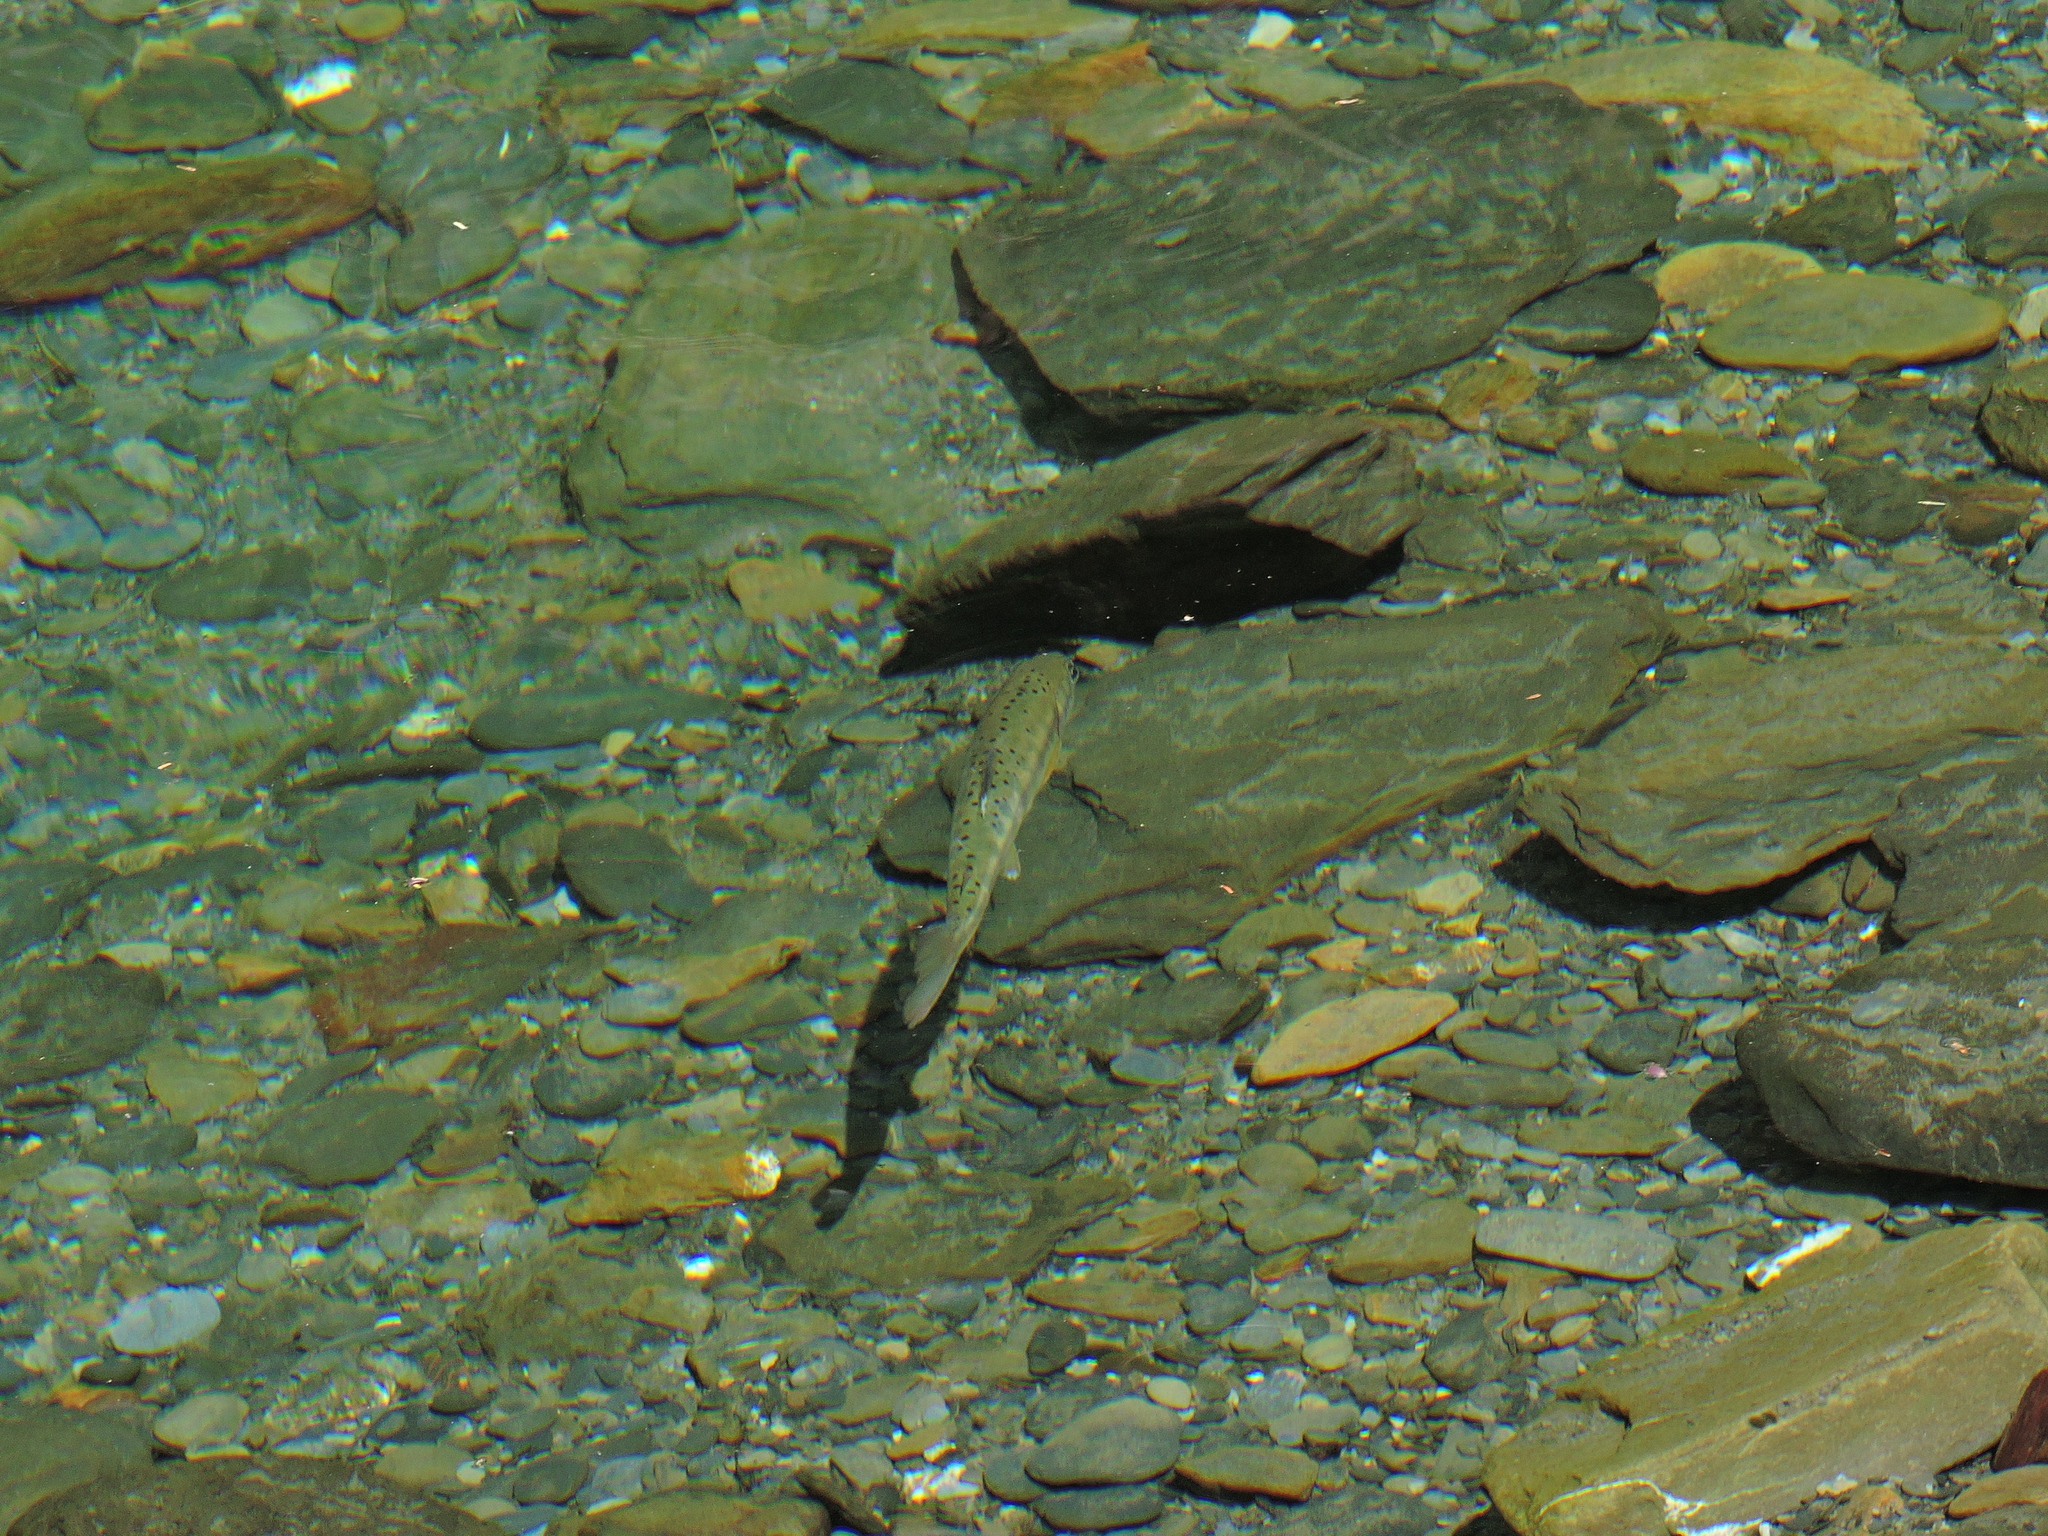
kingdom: Animalia
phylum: Chordata
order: Salmoniformes
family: Salmonidae
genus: Oncorhynchus
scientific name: Oncorhynchus formosanus
